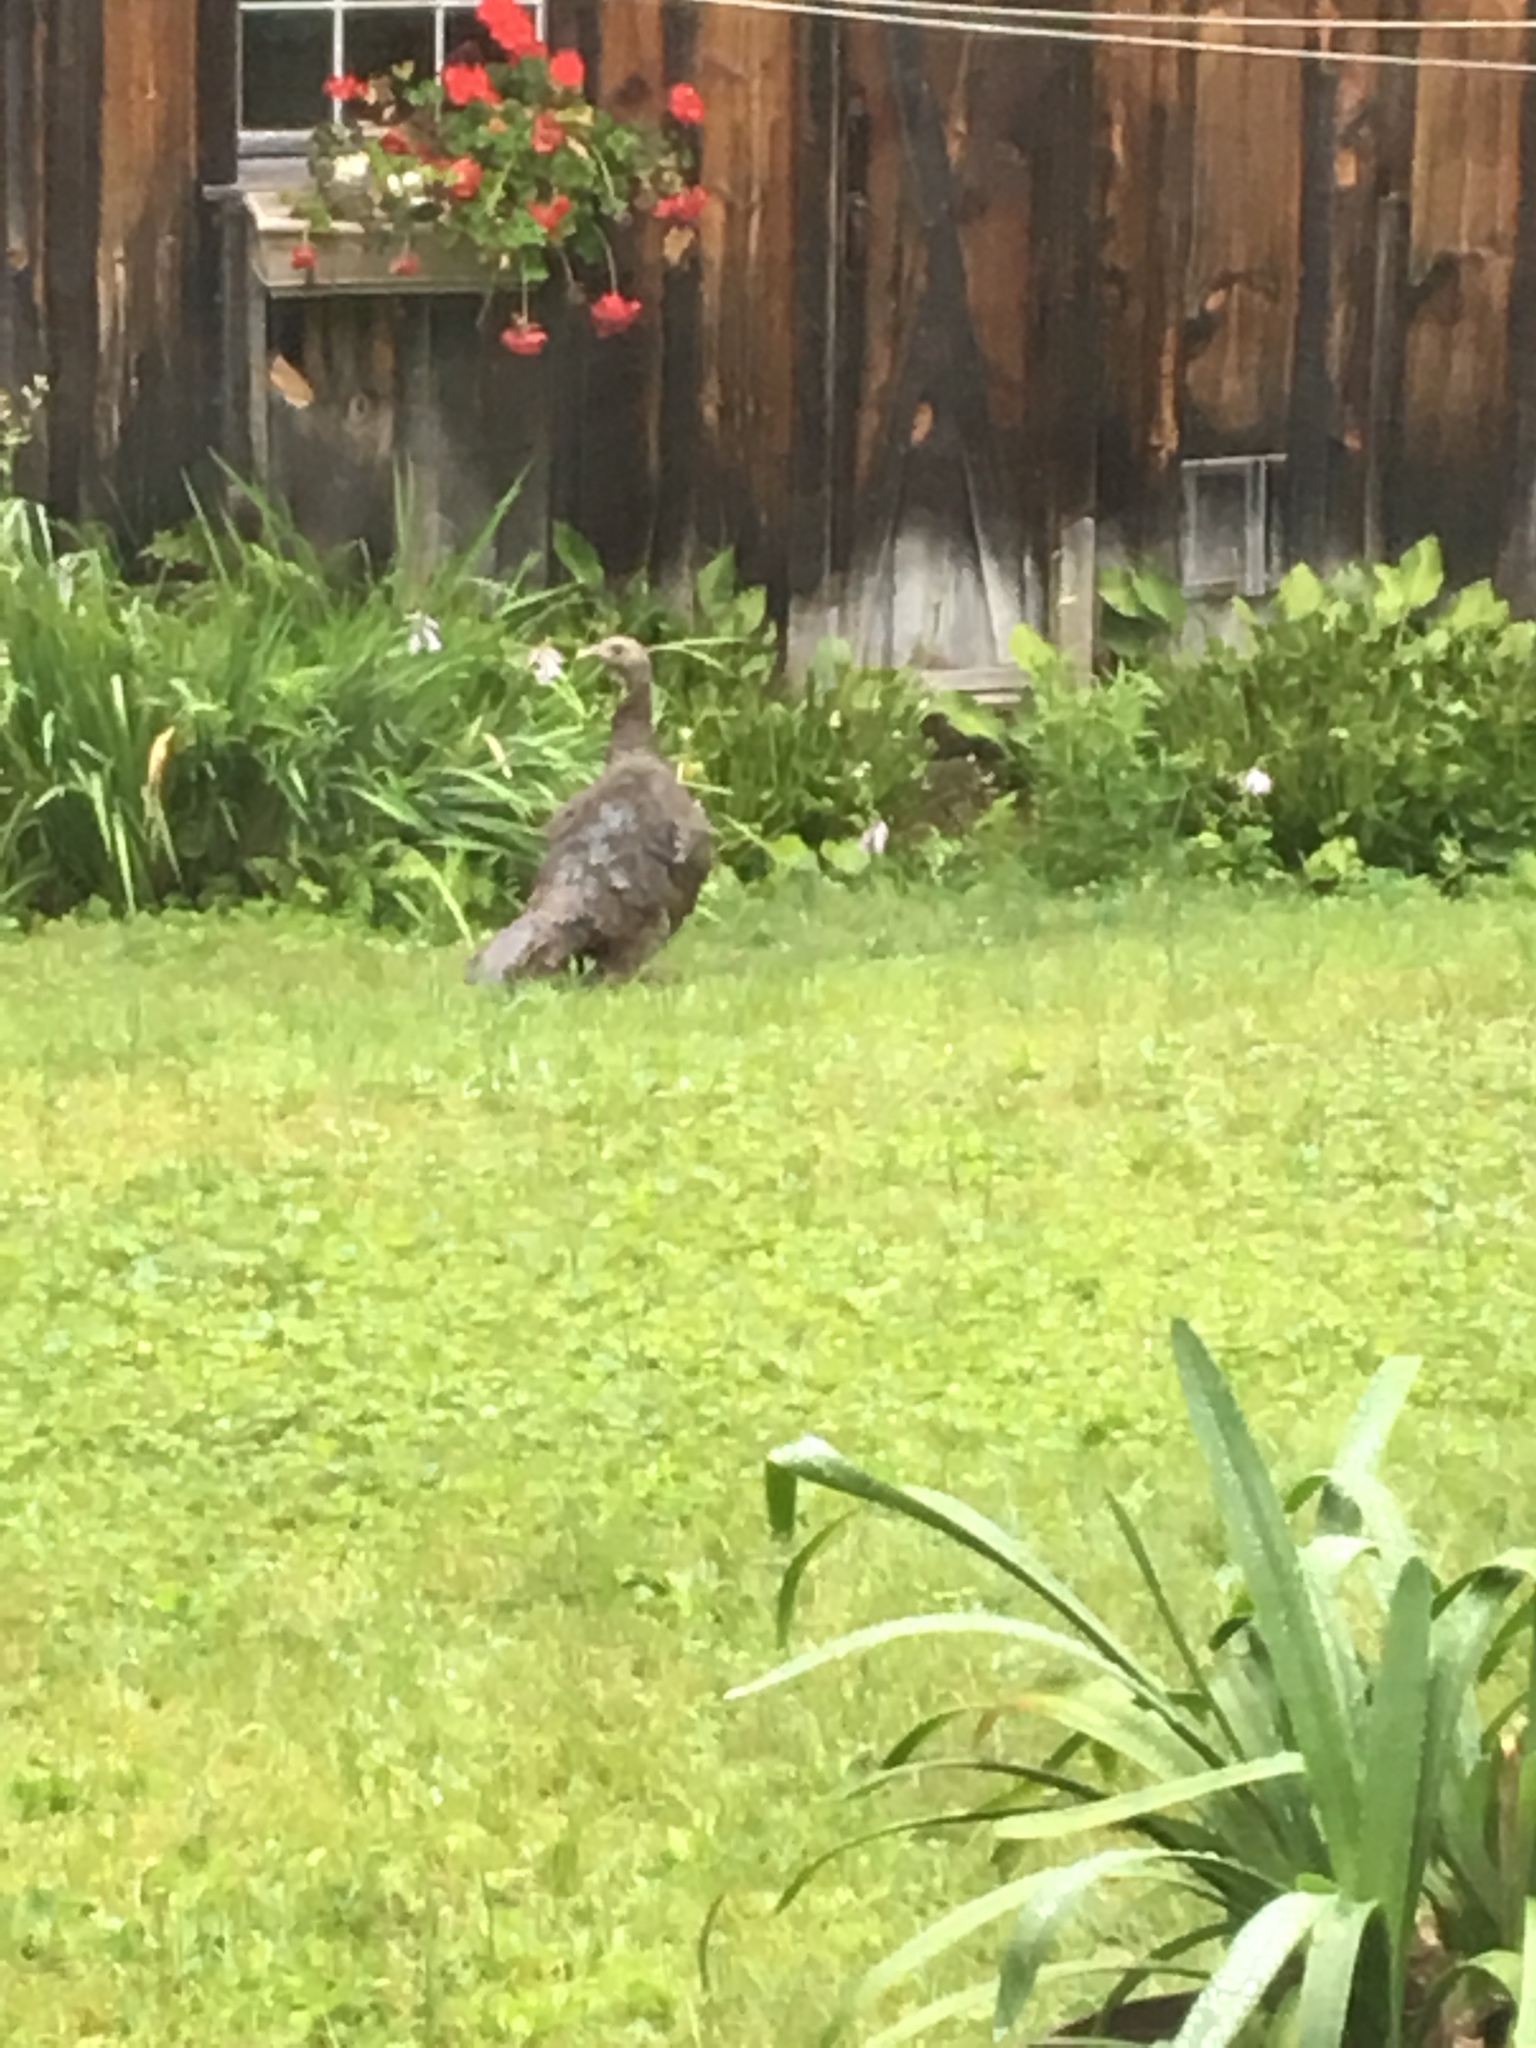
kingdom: Animalia
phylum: Chordata
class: Aves
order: Galliformes
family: Phasianidae
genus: Meleagris
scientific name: Meleagris gallopavo
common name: Wild turkey
